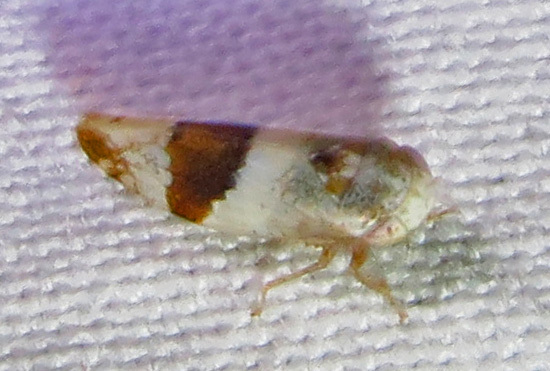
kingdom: Animalia
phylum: Arthropoda
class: Insecta
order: Hemiptera
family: Cicadellidae
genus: Norvellina
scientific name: Norvellina seminuda
